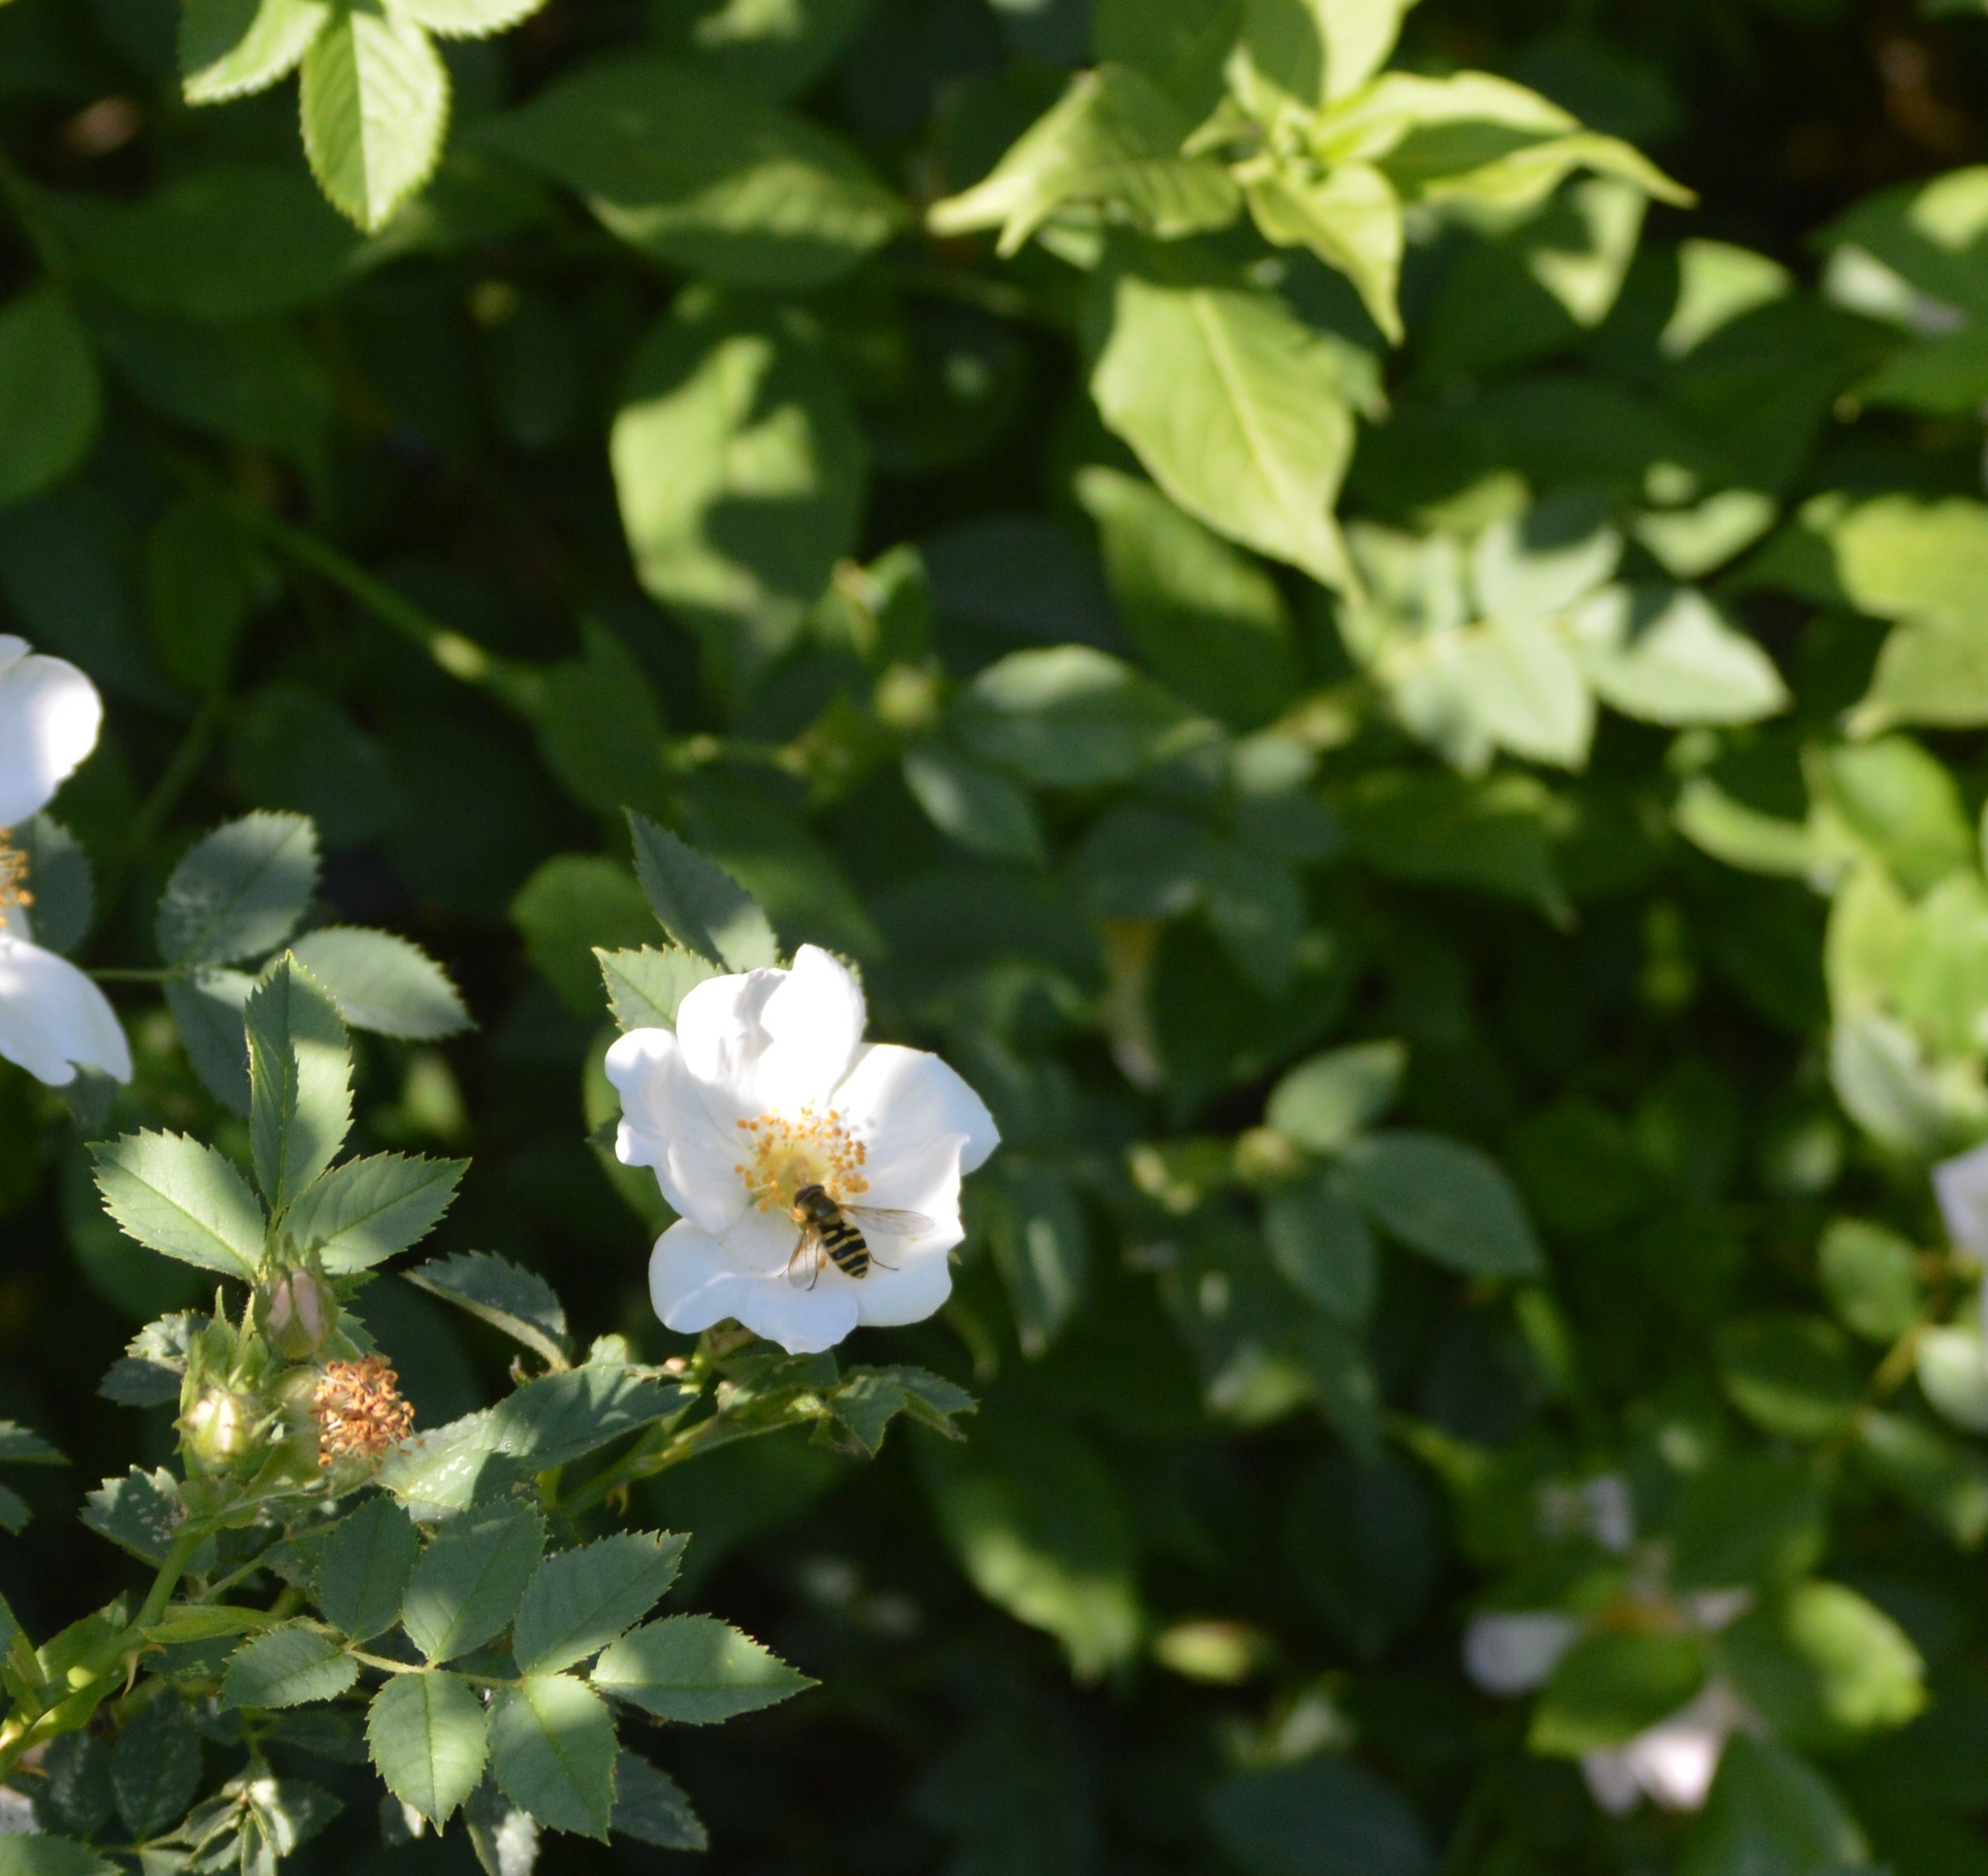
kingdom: Animalia
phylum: Arthropoda
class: Insecta
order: Diptera
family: Syrphidae
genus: Syrphus
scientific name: Syrphus
